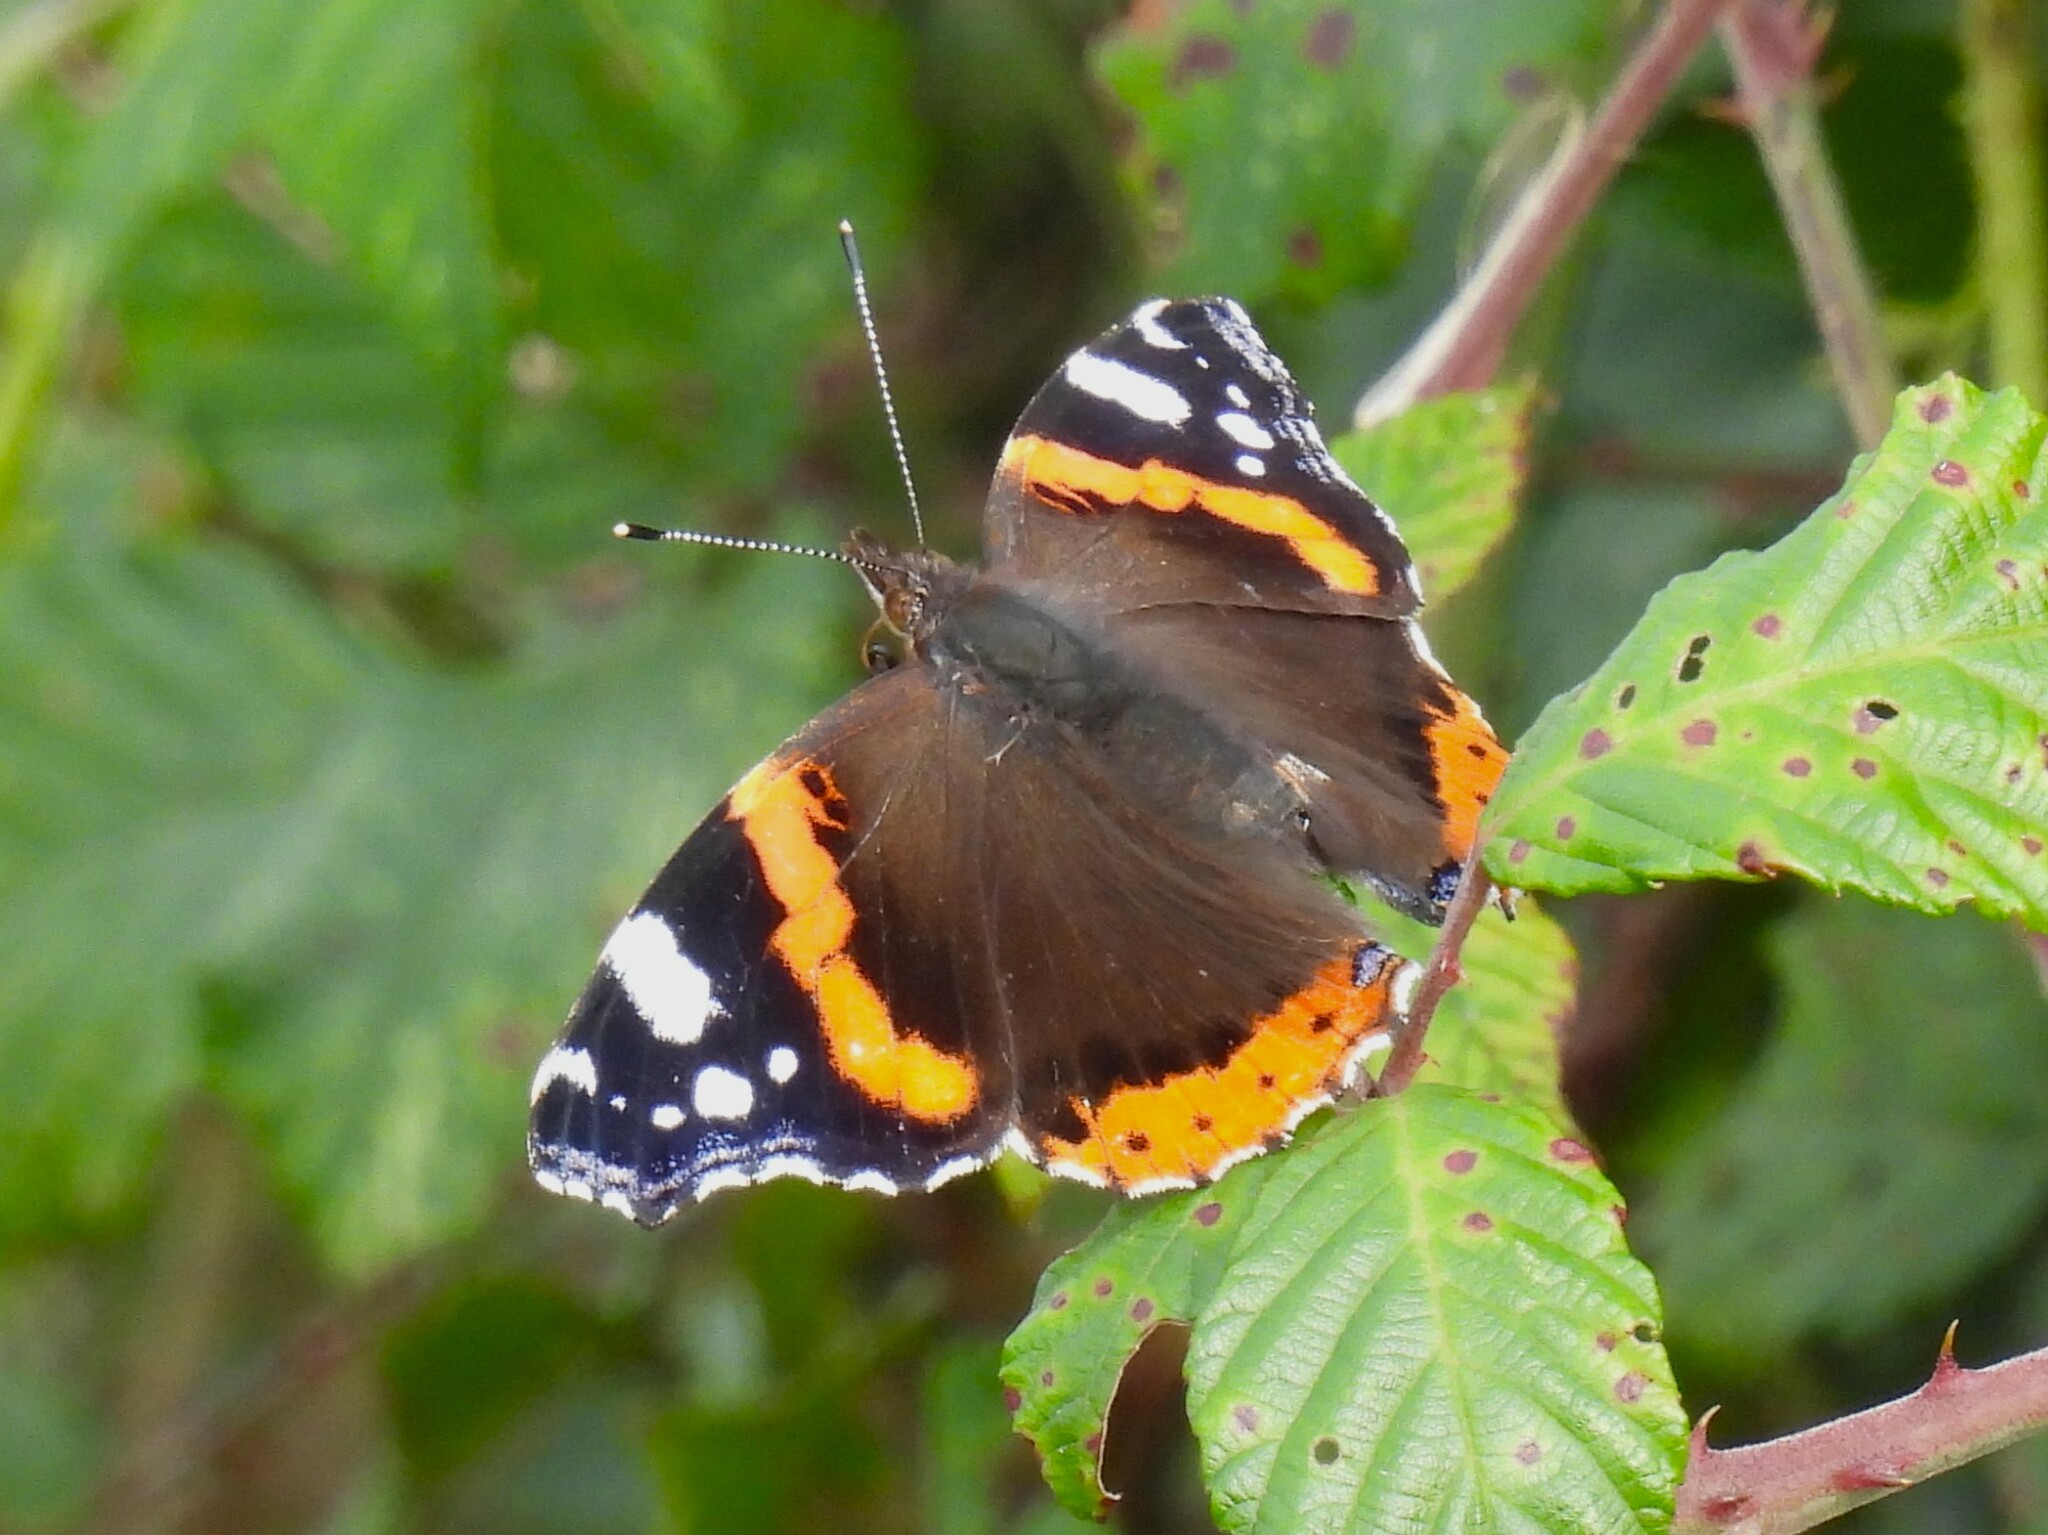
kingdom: Animalia
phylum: Arthropoda
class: Insecta
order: Lepidoptera
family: Nymphalidae
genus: Vanessa
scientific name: Vanessa atalanta
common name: Red admiral
